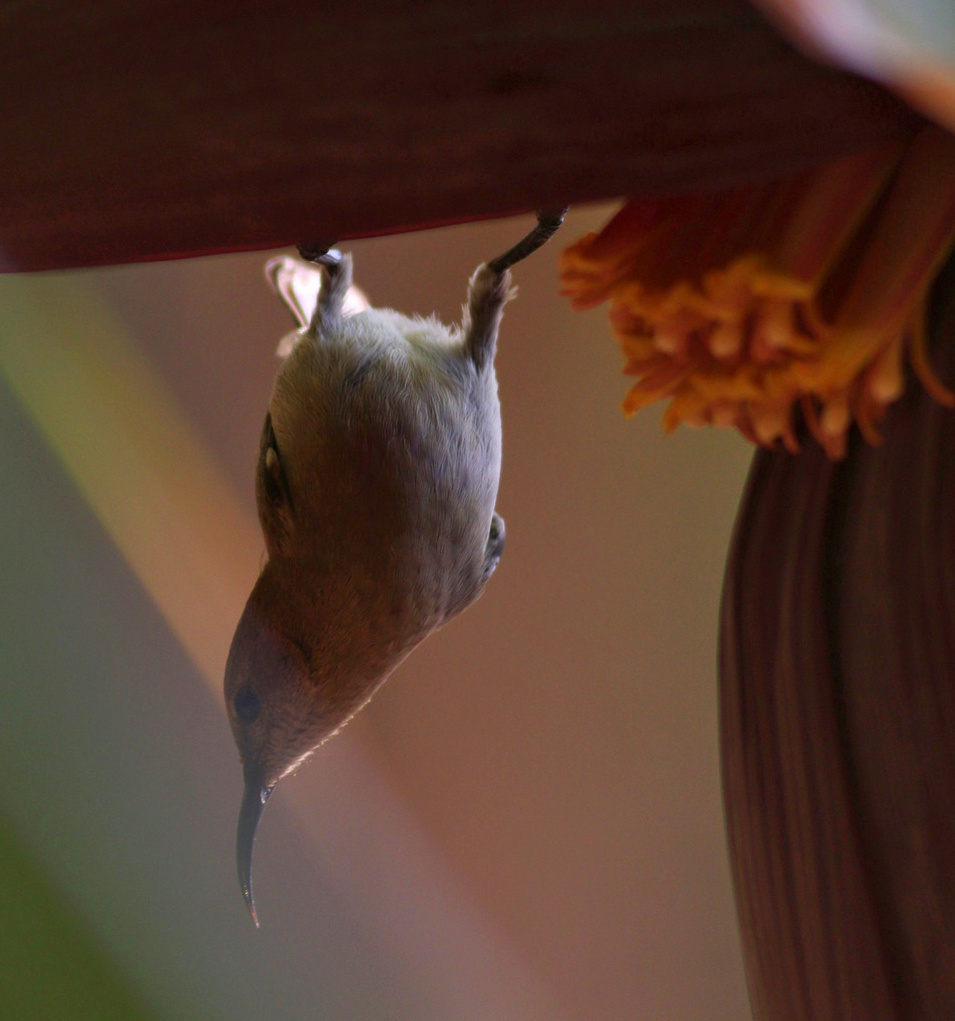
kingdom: Animalia
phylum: Chordata
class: Aves
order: Passeriformes
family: Nectariniidae
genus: Cinnyris
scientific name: Cinnyris osea
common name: Palestine sunbird
